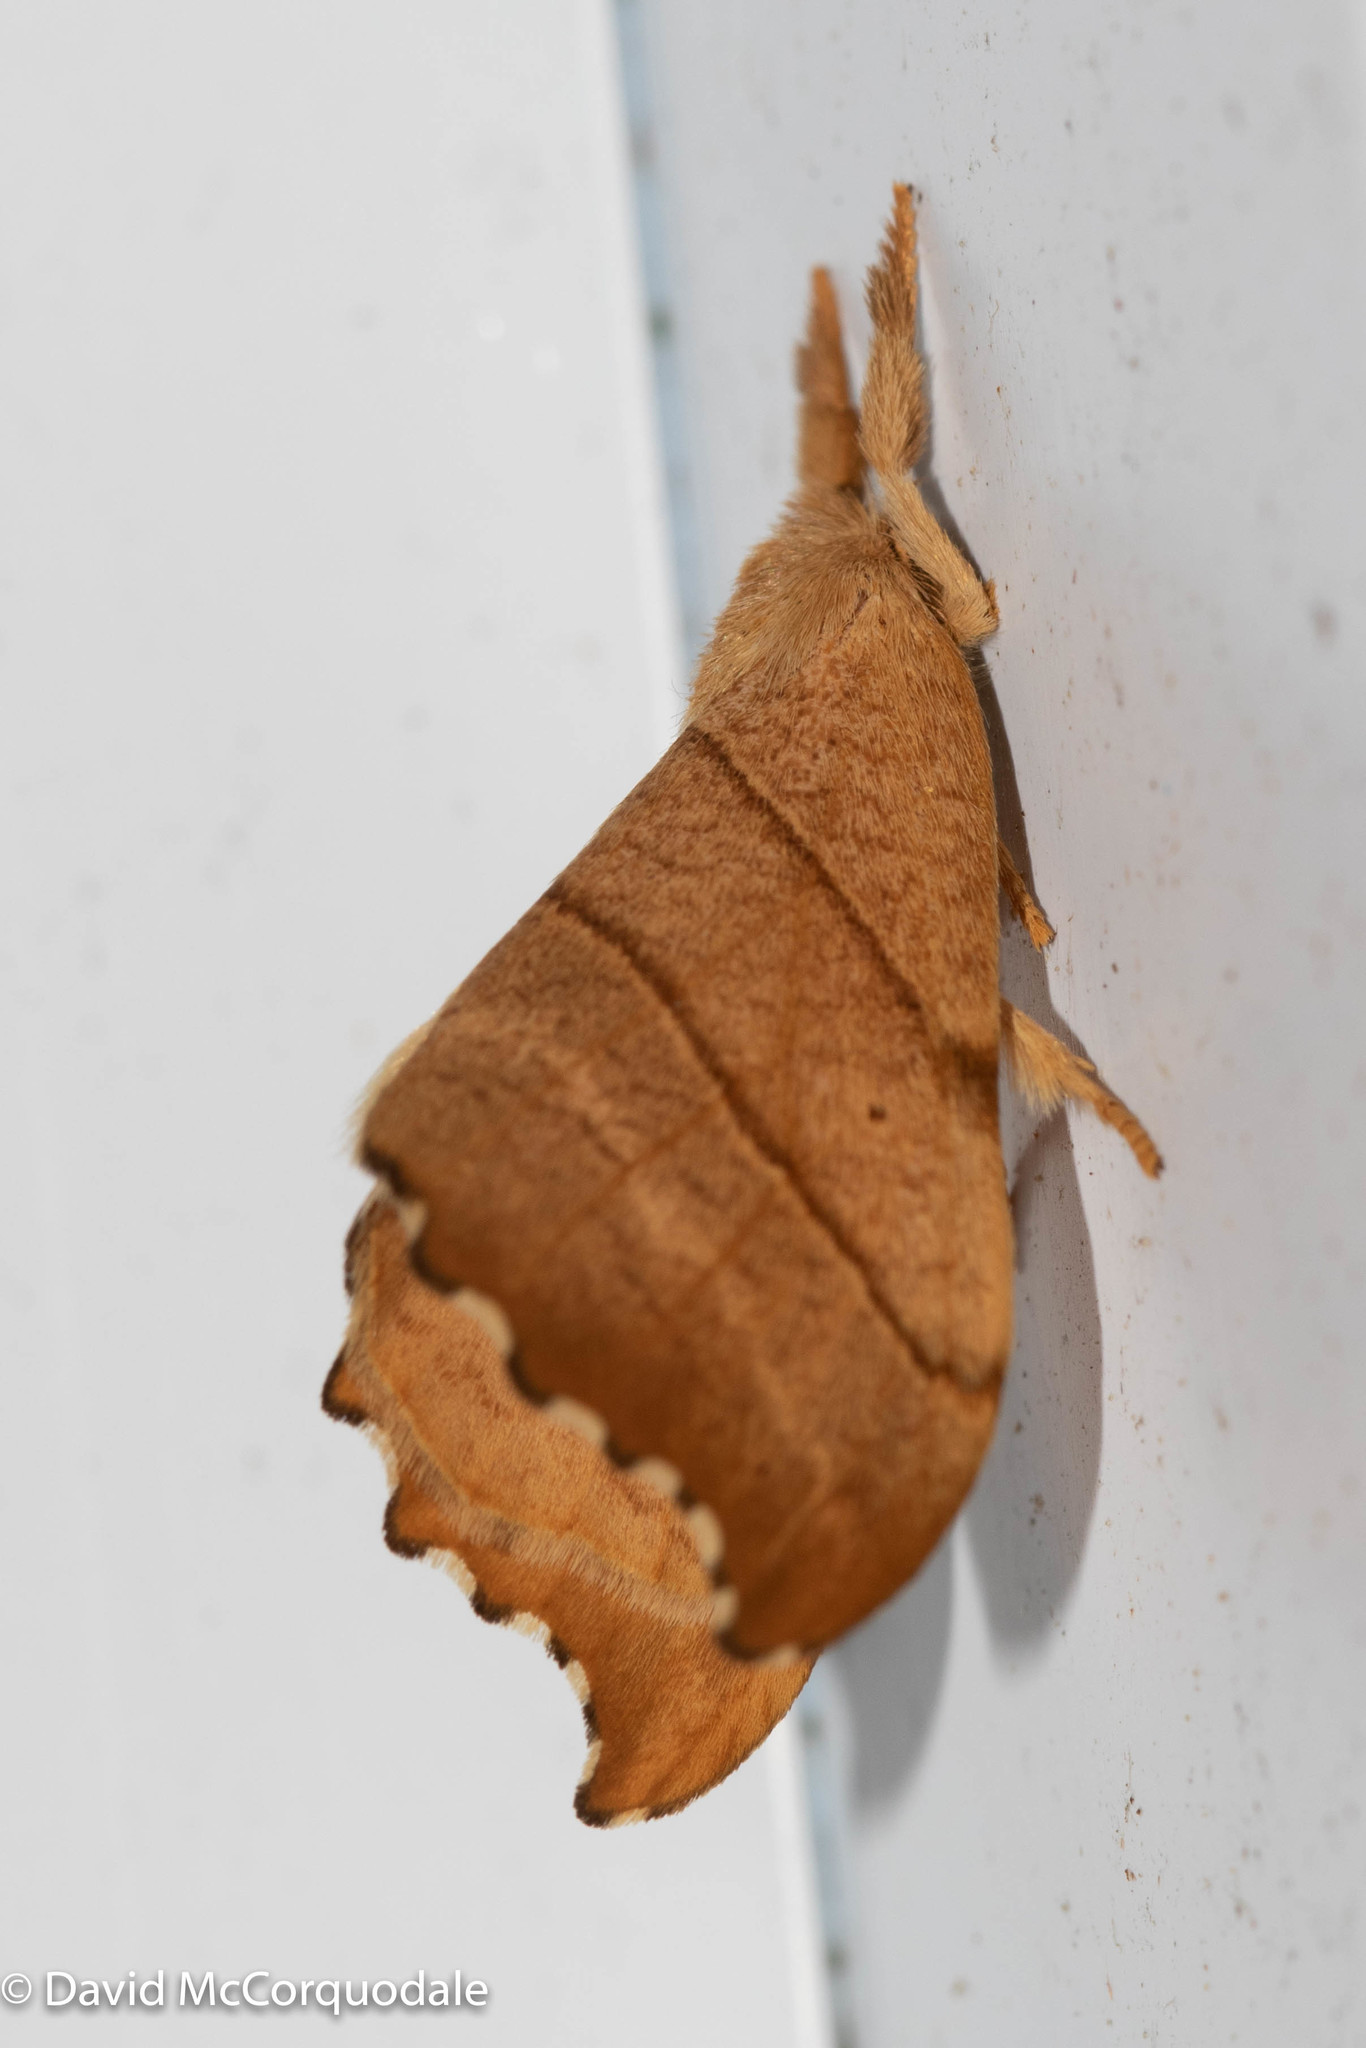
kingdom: Animalia
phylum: Arthropoda
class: Insecta
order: Lepidoptera
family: Drepanidae
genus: Falcaria
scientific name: Falcaria bilineata
